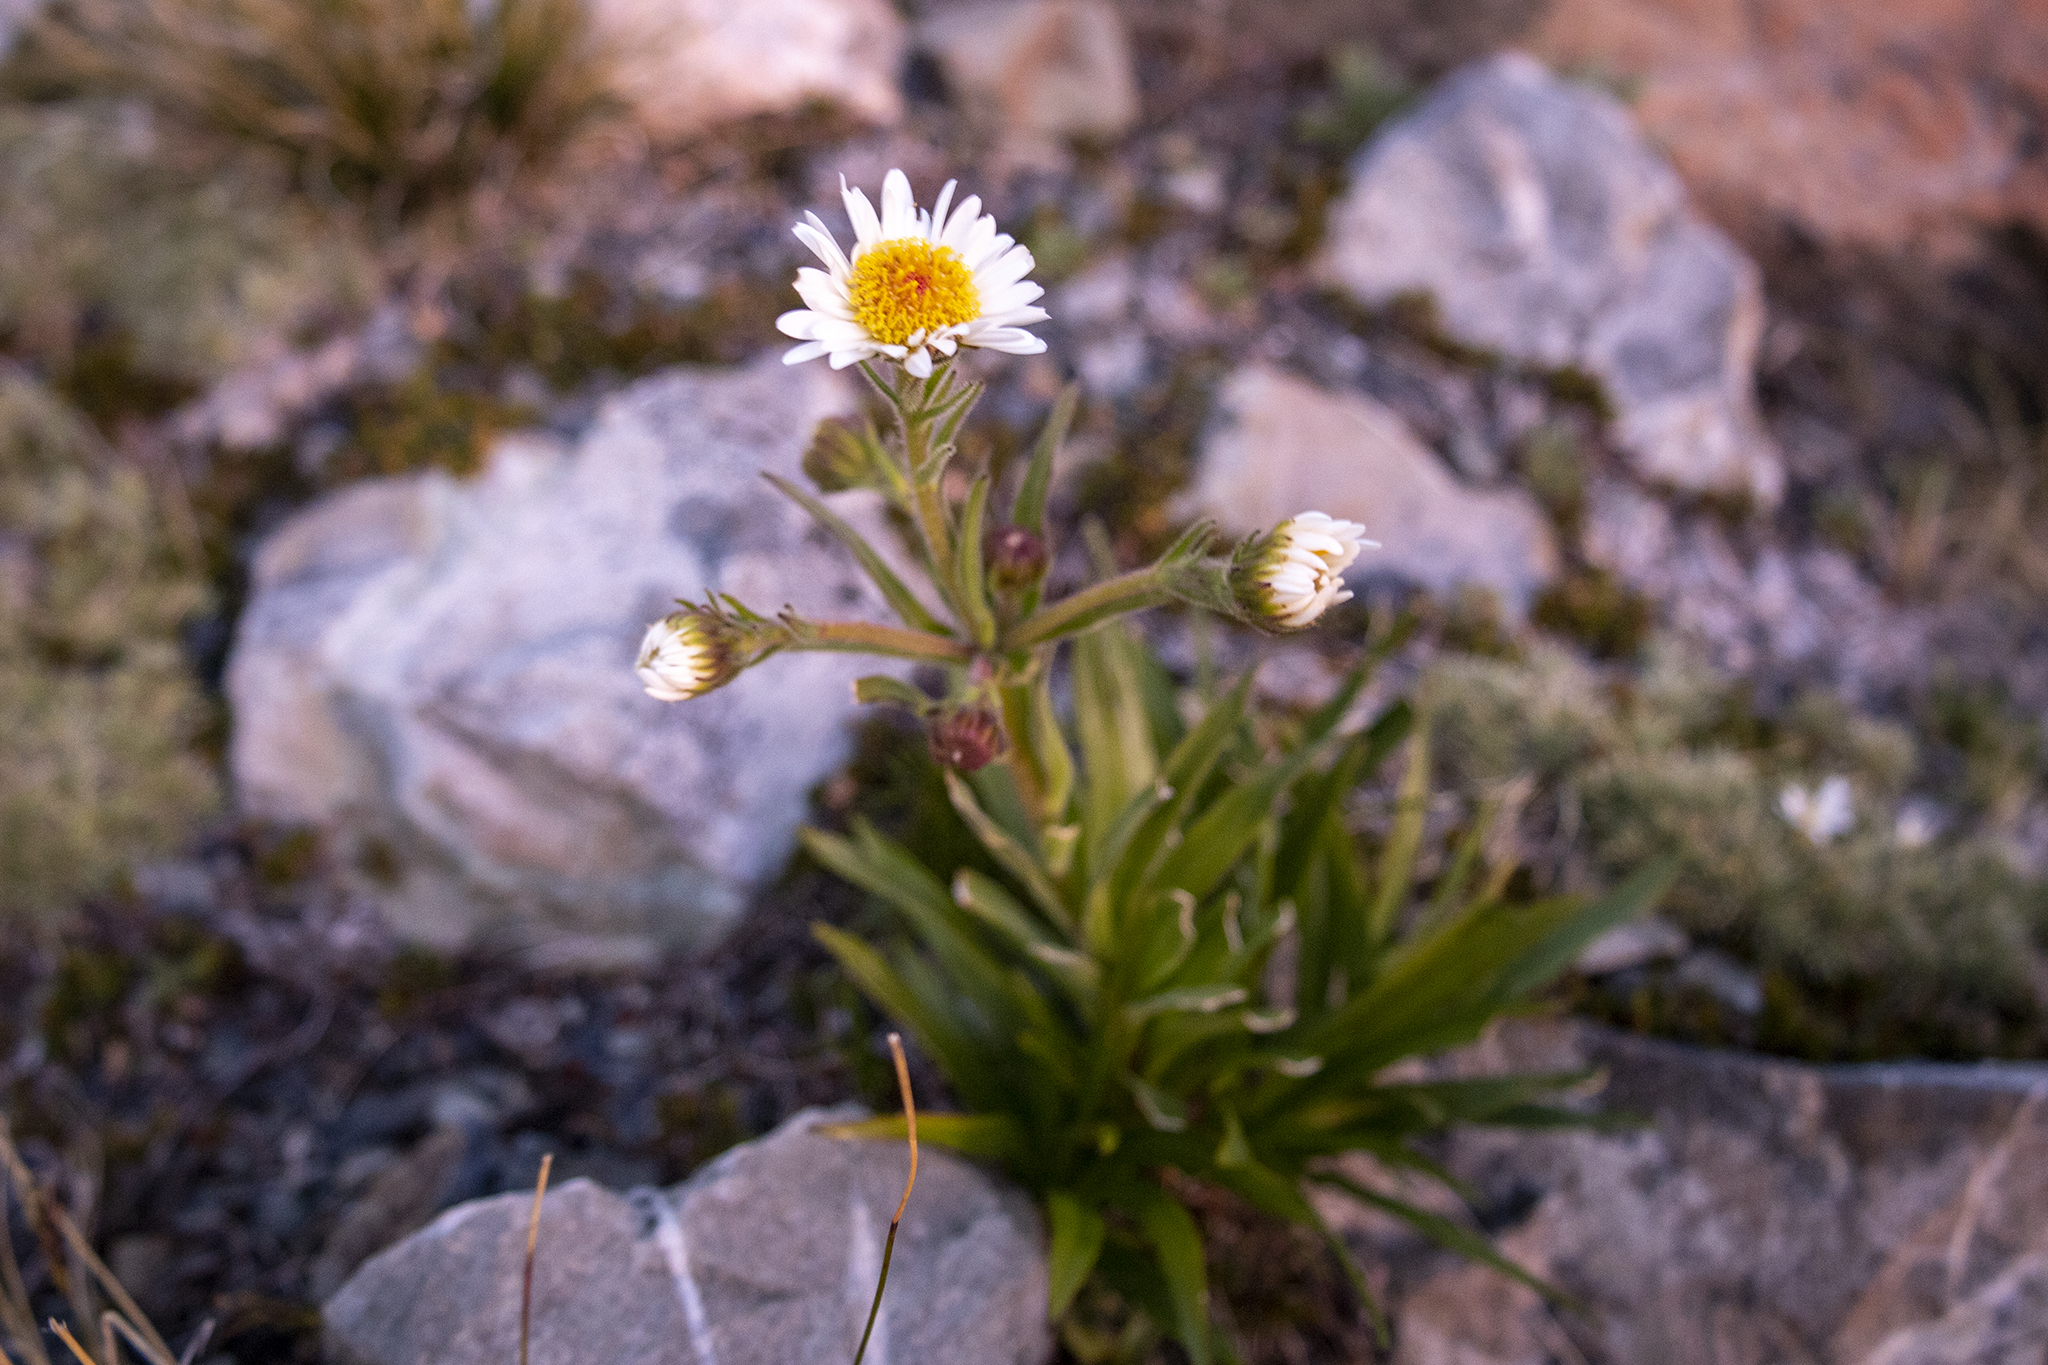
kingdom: Plantae
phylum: Tracheophyta
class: Magnoliopsida
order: Asterales
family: Asteraceae
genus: Dolichoglottis
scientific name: Dolichoglottis scorzoneroides
